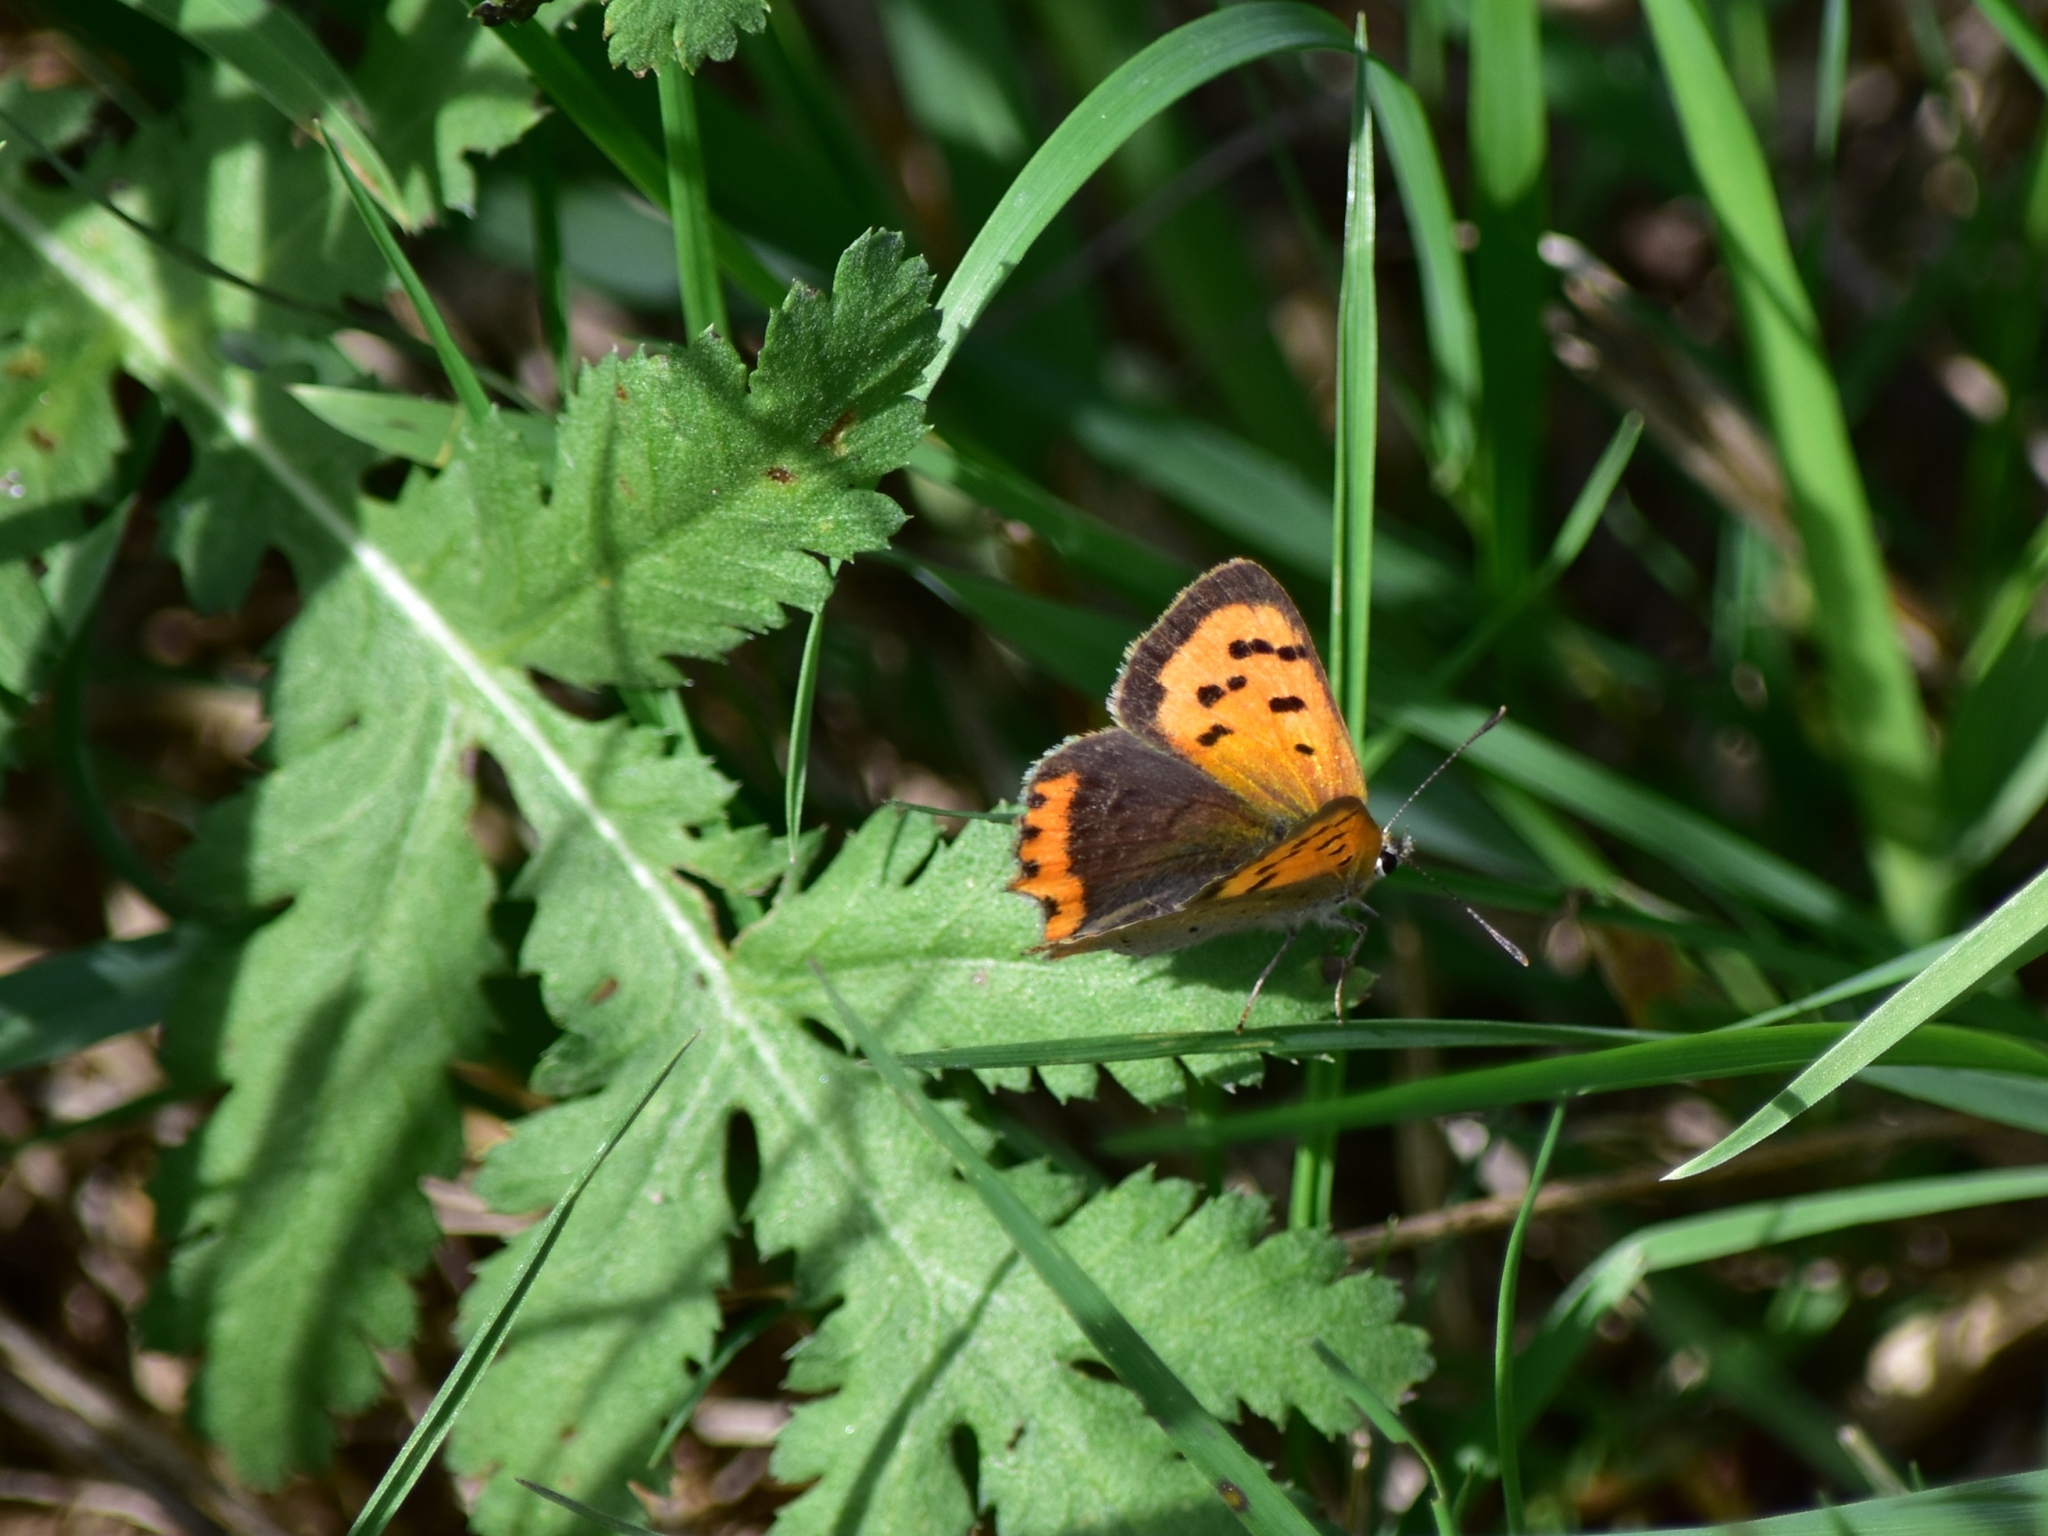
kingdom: Animalia
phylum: Arthropoda
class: Insecta
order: Lepidoptera
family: Lycaenidae
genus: Lycaena
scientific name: Lycaena phlaeas
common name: Small copper
